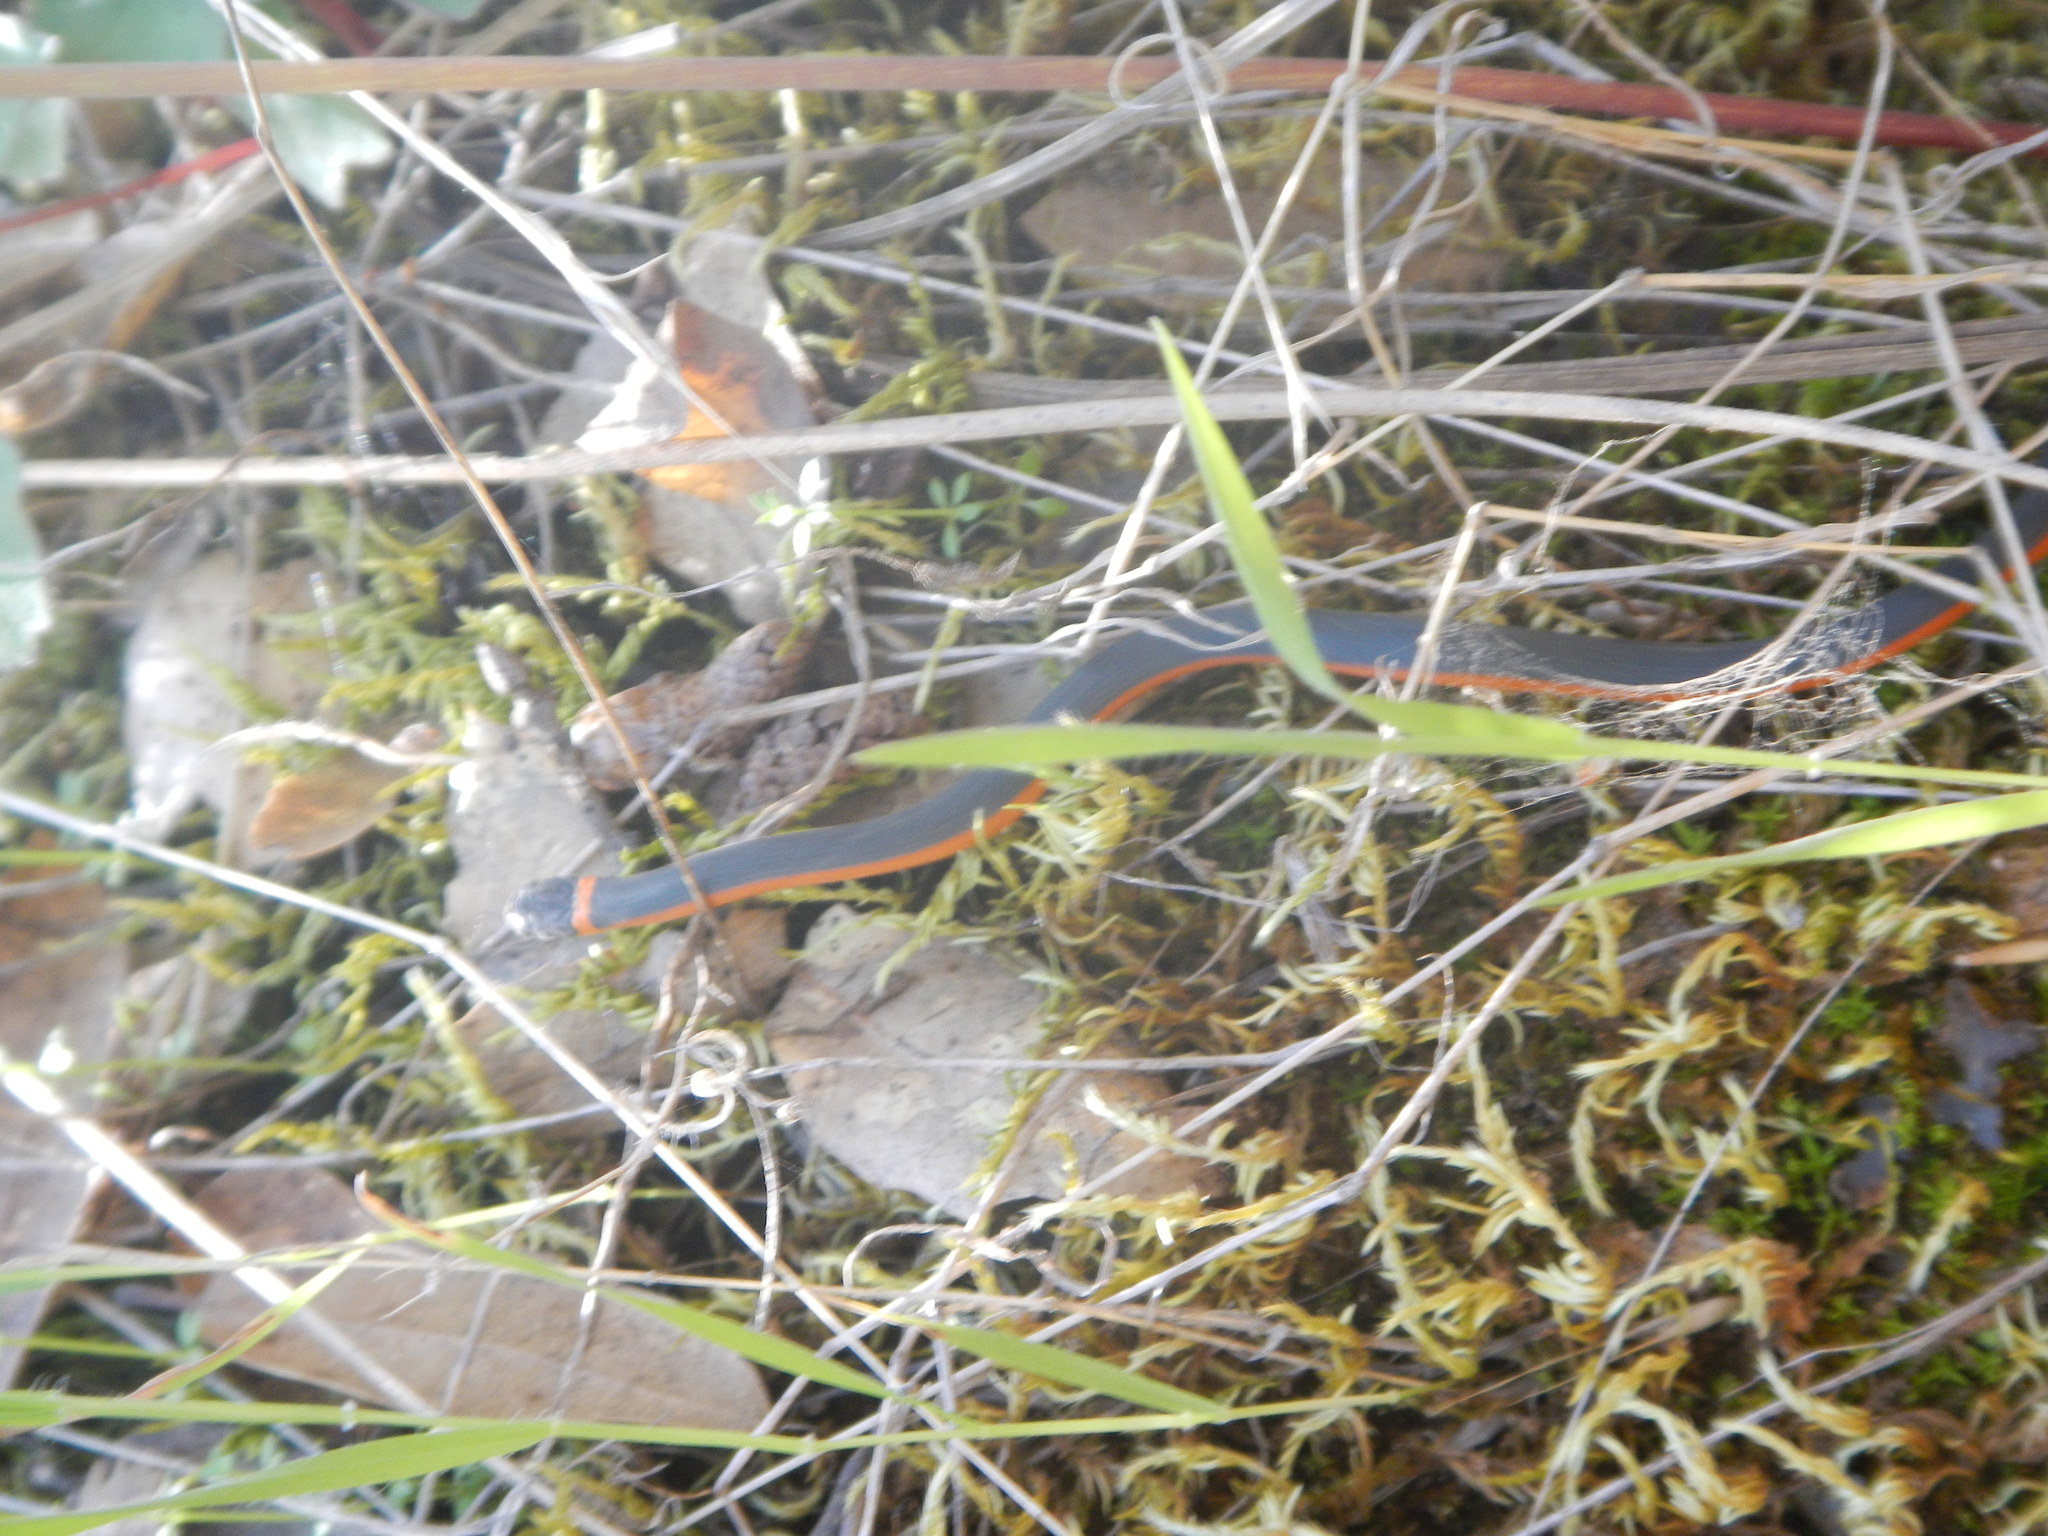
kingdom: Animalia
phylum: Chordata
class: Squamata
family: Colubridae
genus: Diadophis
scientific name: Diadophis punctatus
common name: Ringneck snake
